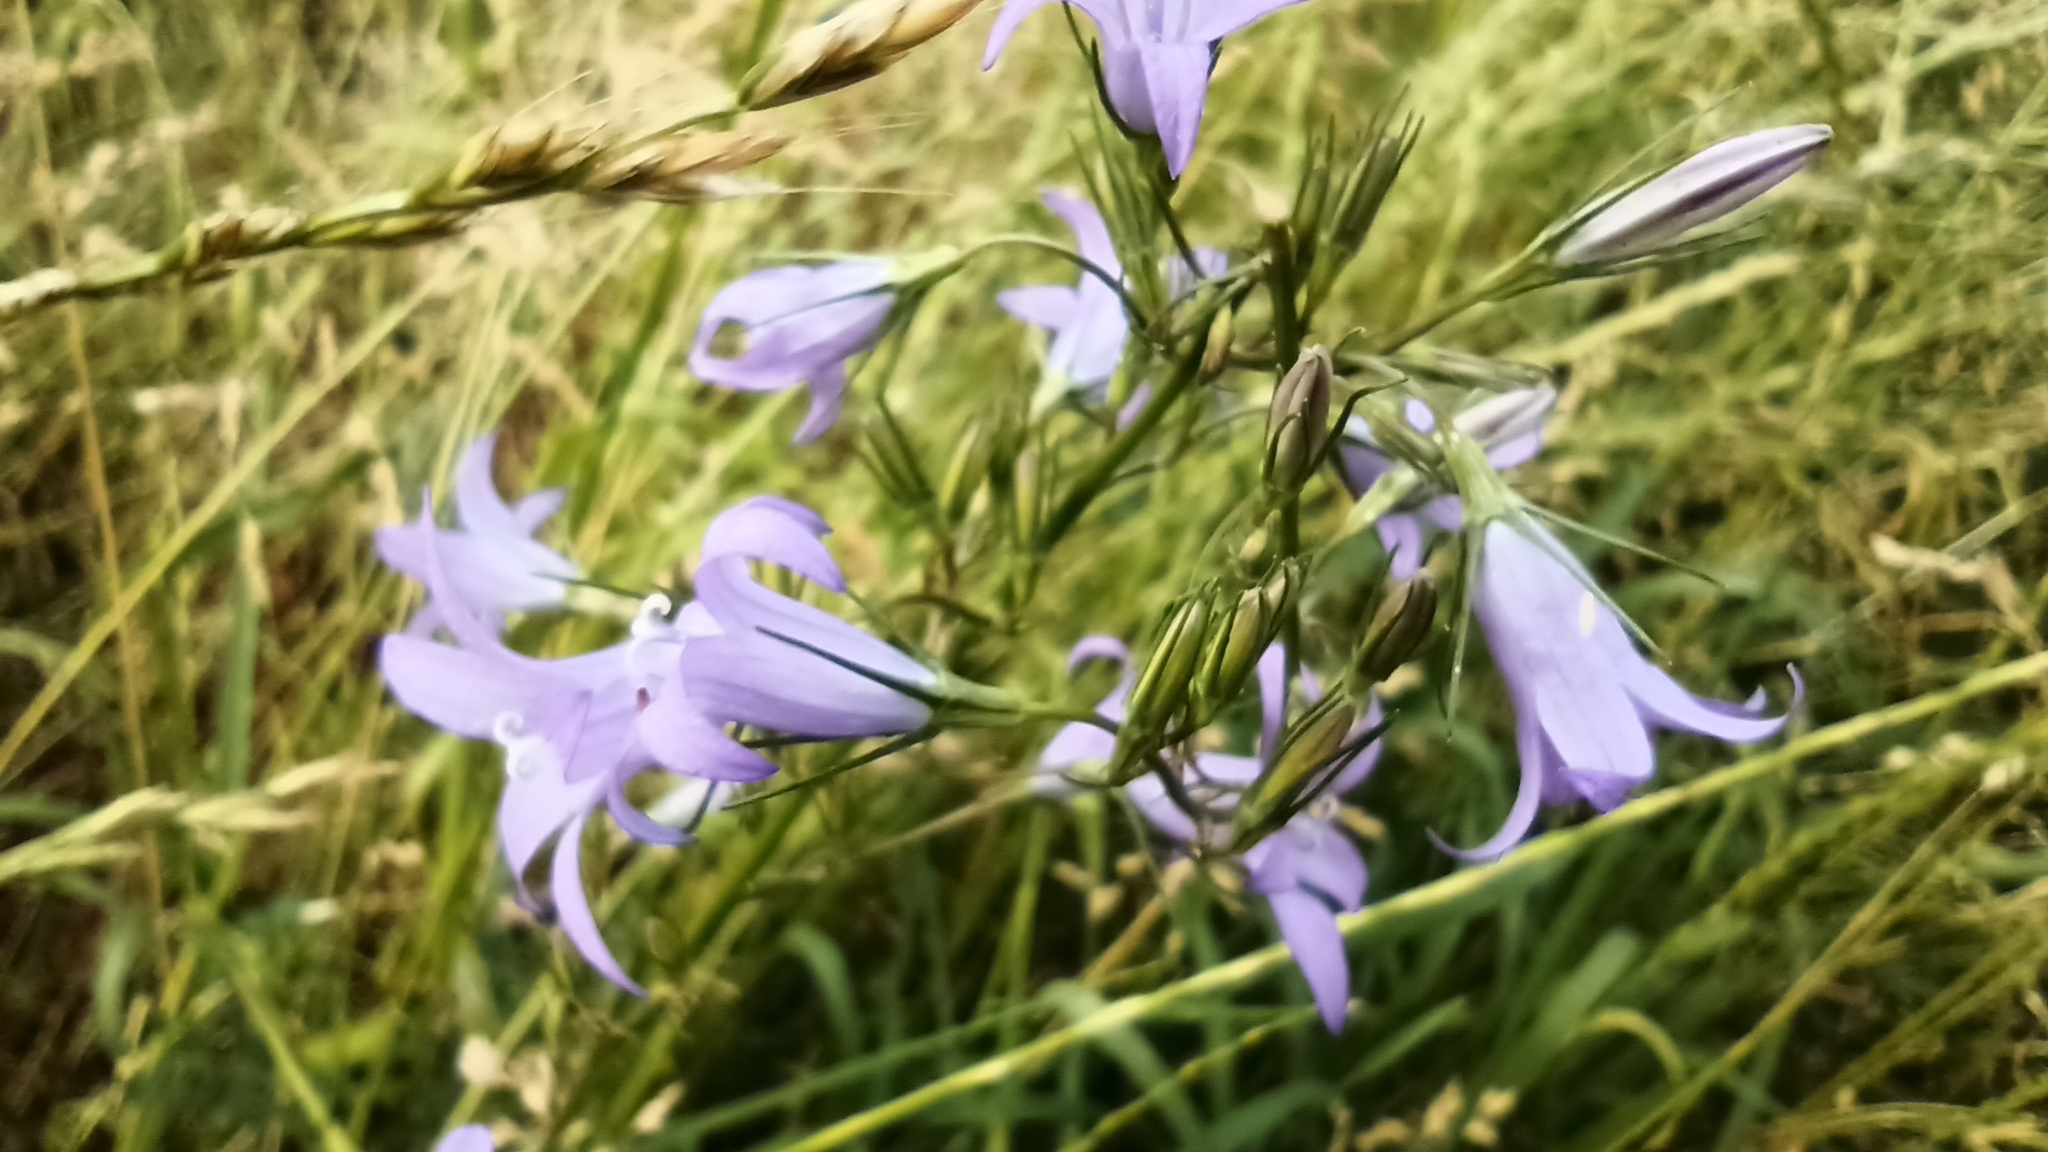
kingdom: Plantae
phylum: Tracheophyta
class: Magnoliopsida
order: Asterales
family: Campanulaceae
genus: Campanula
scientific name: Campanula rapunculus
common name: Rampion bellflower
